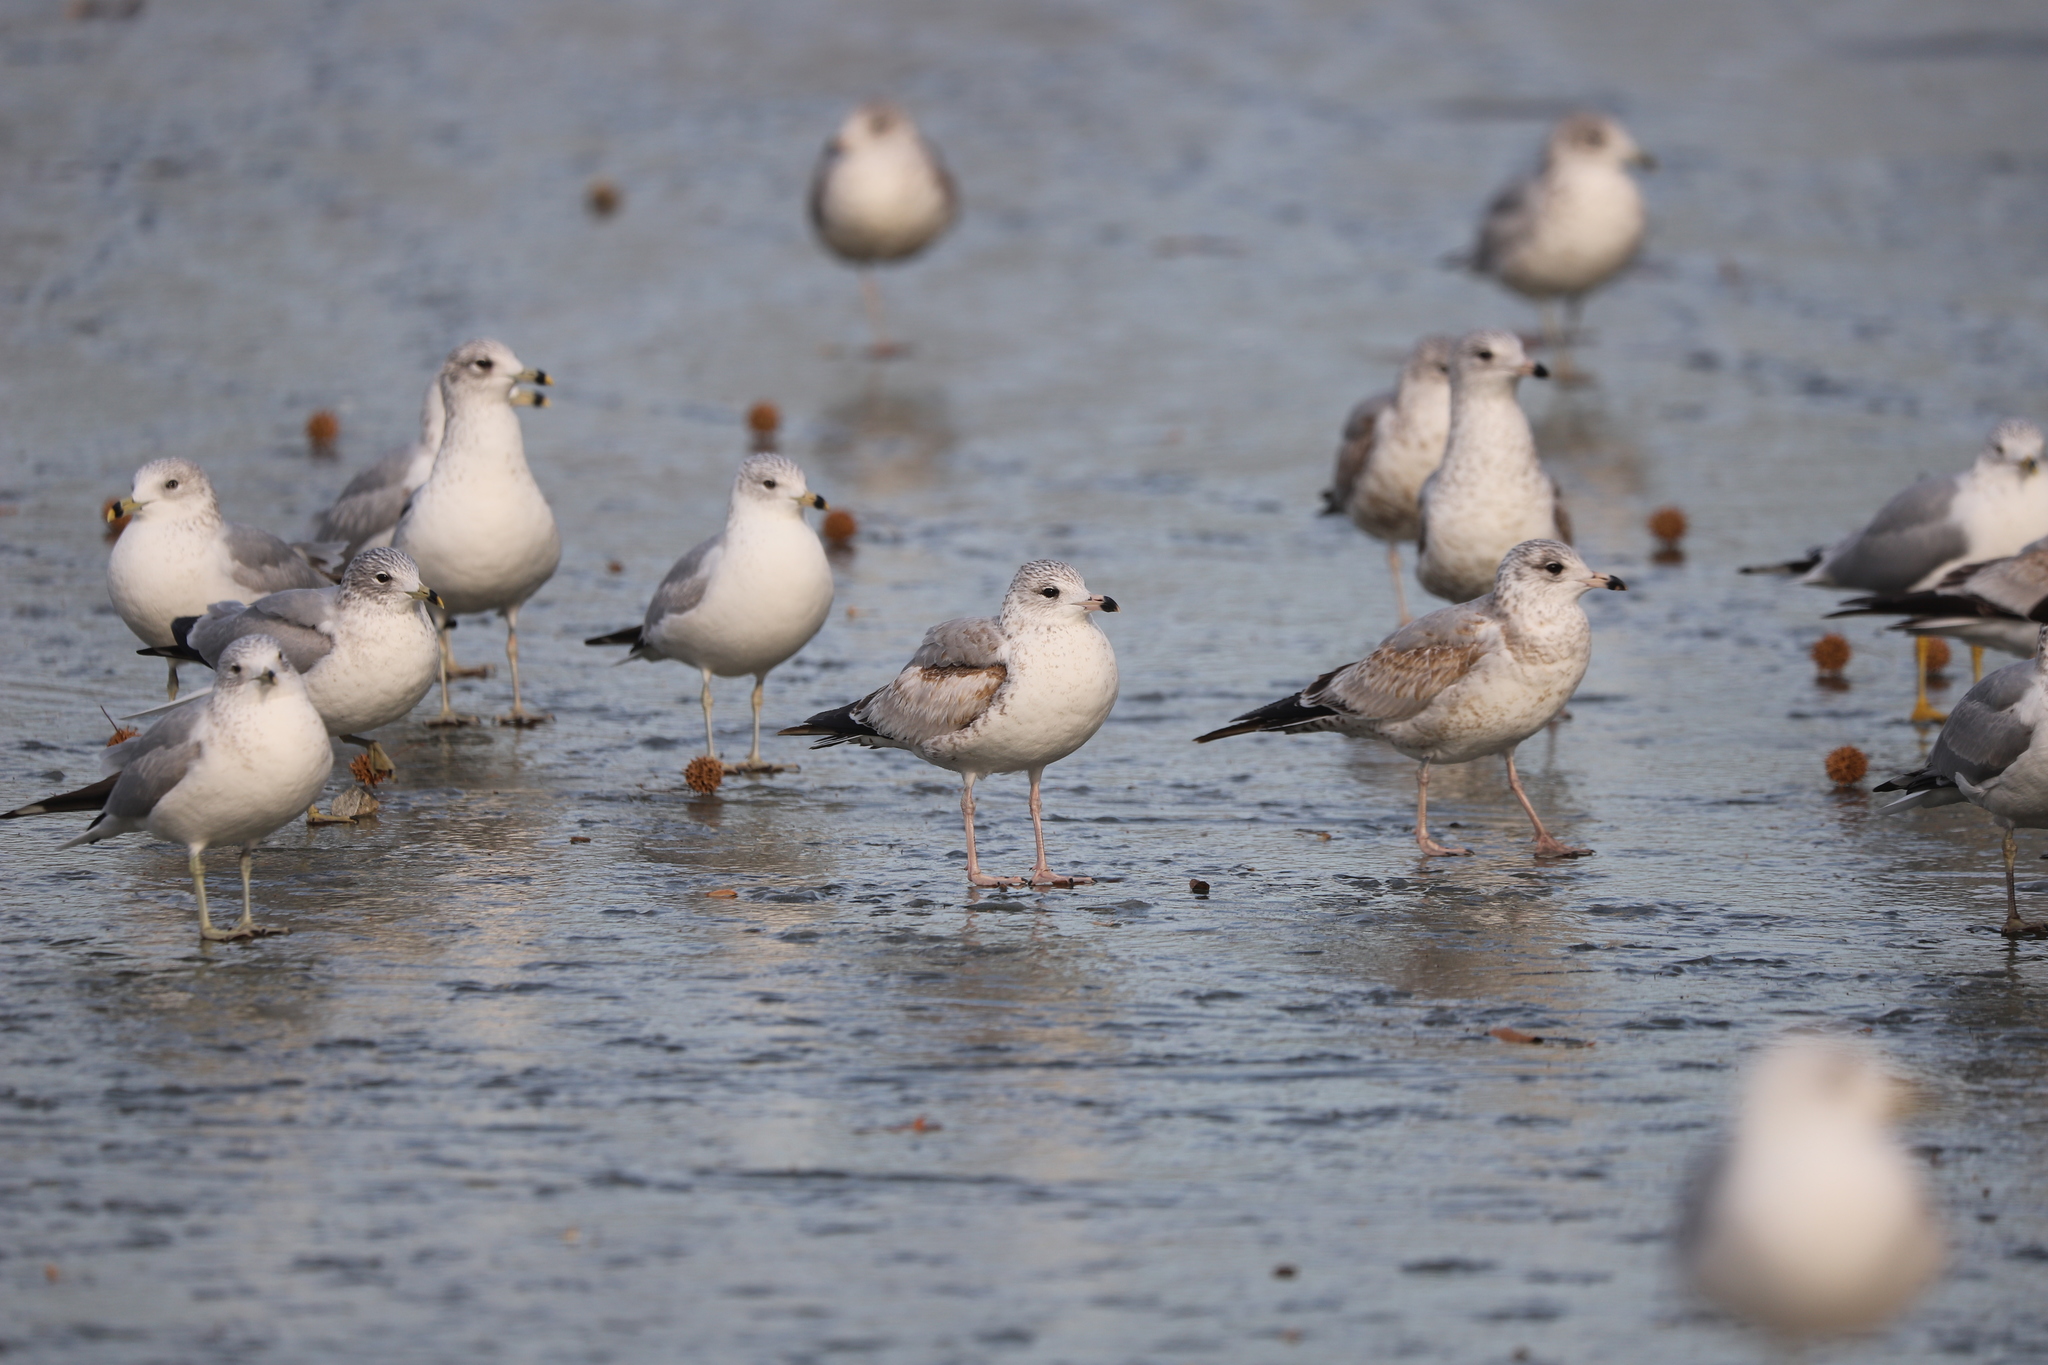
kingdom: Animalia
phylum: Chordata
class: Aves
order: Charadriiformes
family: Laridae
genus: Larus
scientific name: Larus delawarensis
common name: Ring-billed gull
